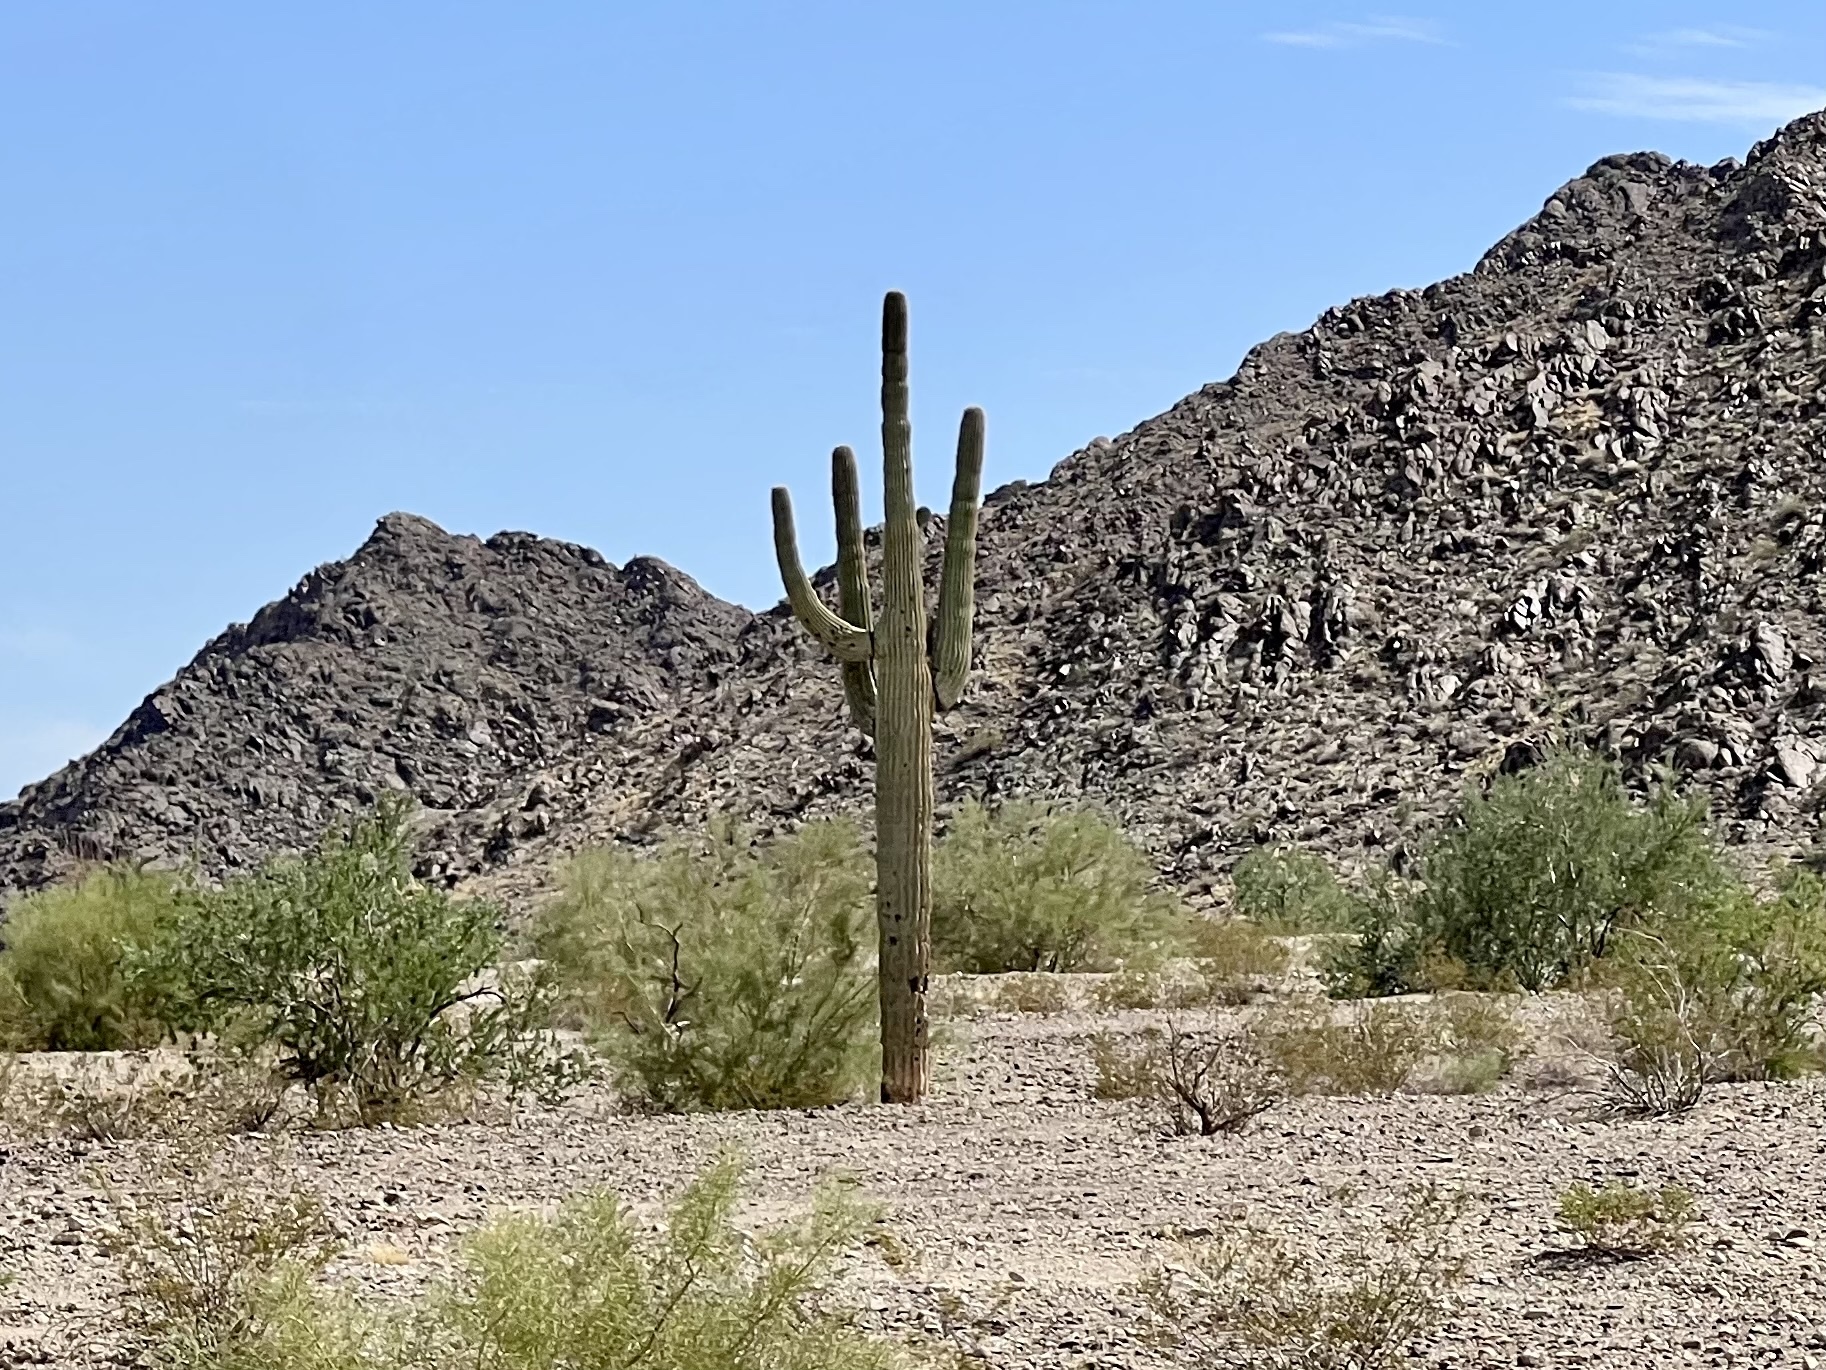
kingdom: Plantae
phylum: Tracheophyta
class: Magnoliopsida
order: Caryophyllales
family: Cactaceae
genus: Carnegiea
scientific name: Carnegiea gigantea
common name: Saguaro
